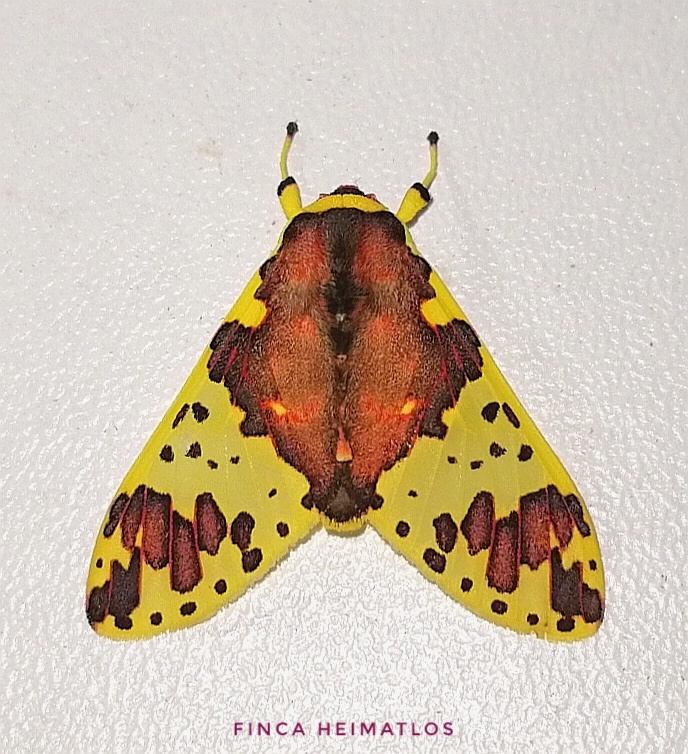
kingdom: Animalia
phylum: Arthropoda
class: Insecta
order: Lepidoptera
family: Erebidae
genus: Amaxia
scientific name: Amaxia carinosa
